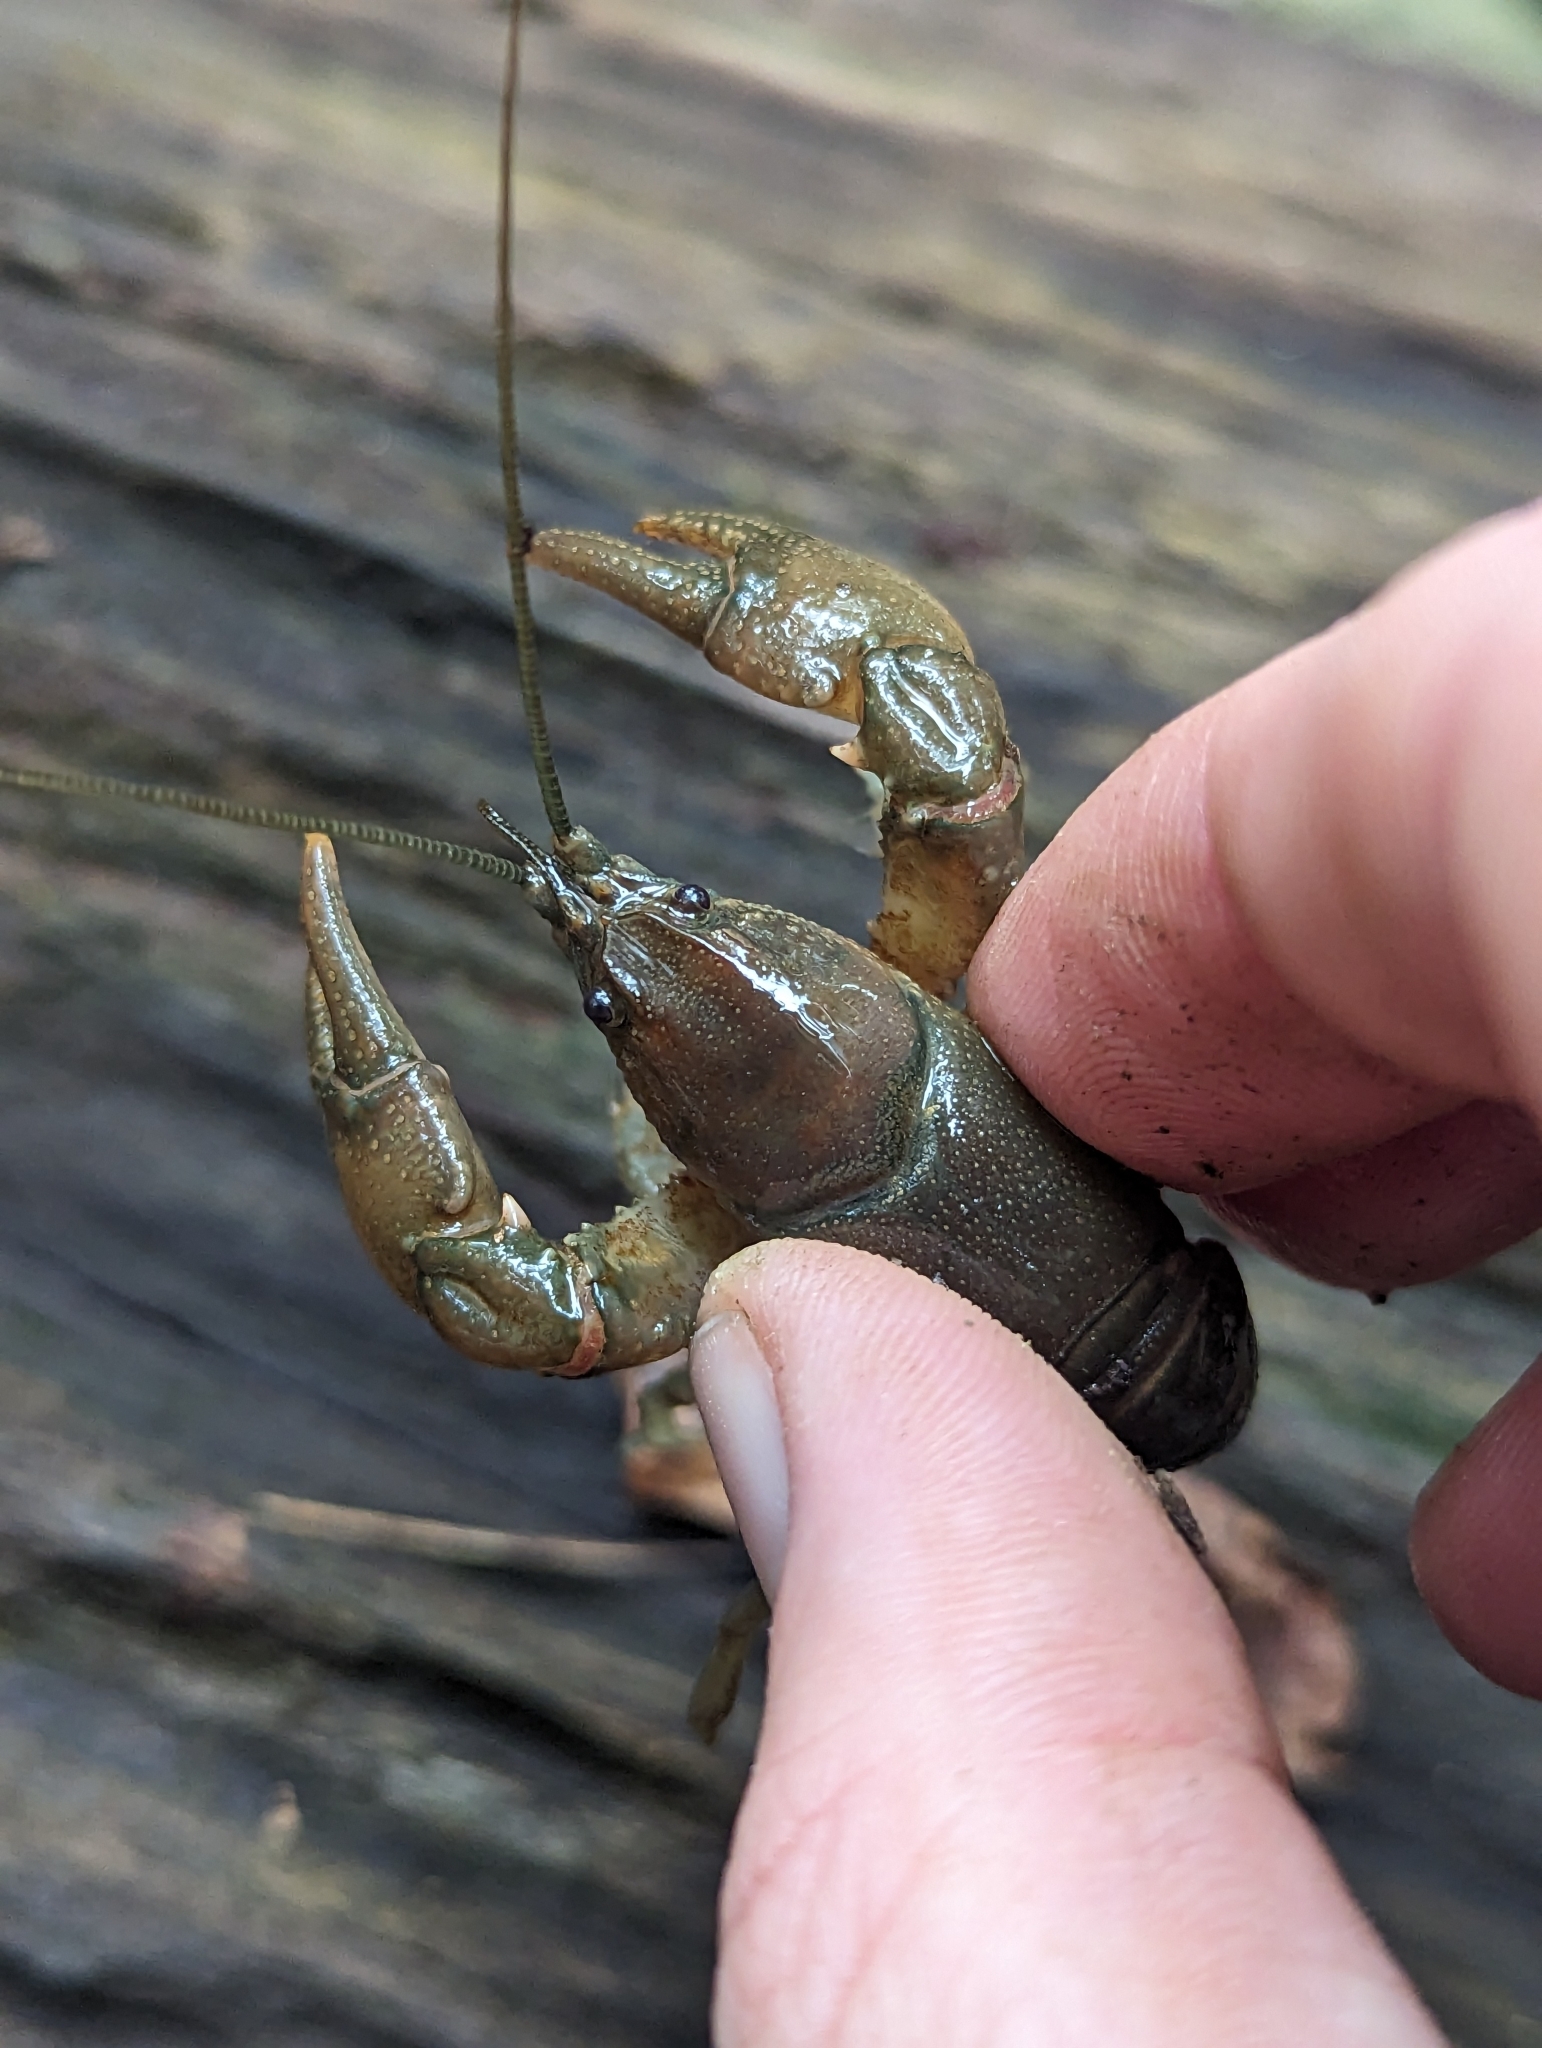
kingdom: Animalia
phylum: Arthropoda
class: Malacostraca
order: Decapoda
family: Cambaridae
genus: Cambarus
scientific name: Cambarus bartonii
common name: Appalachian brook crayfish
